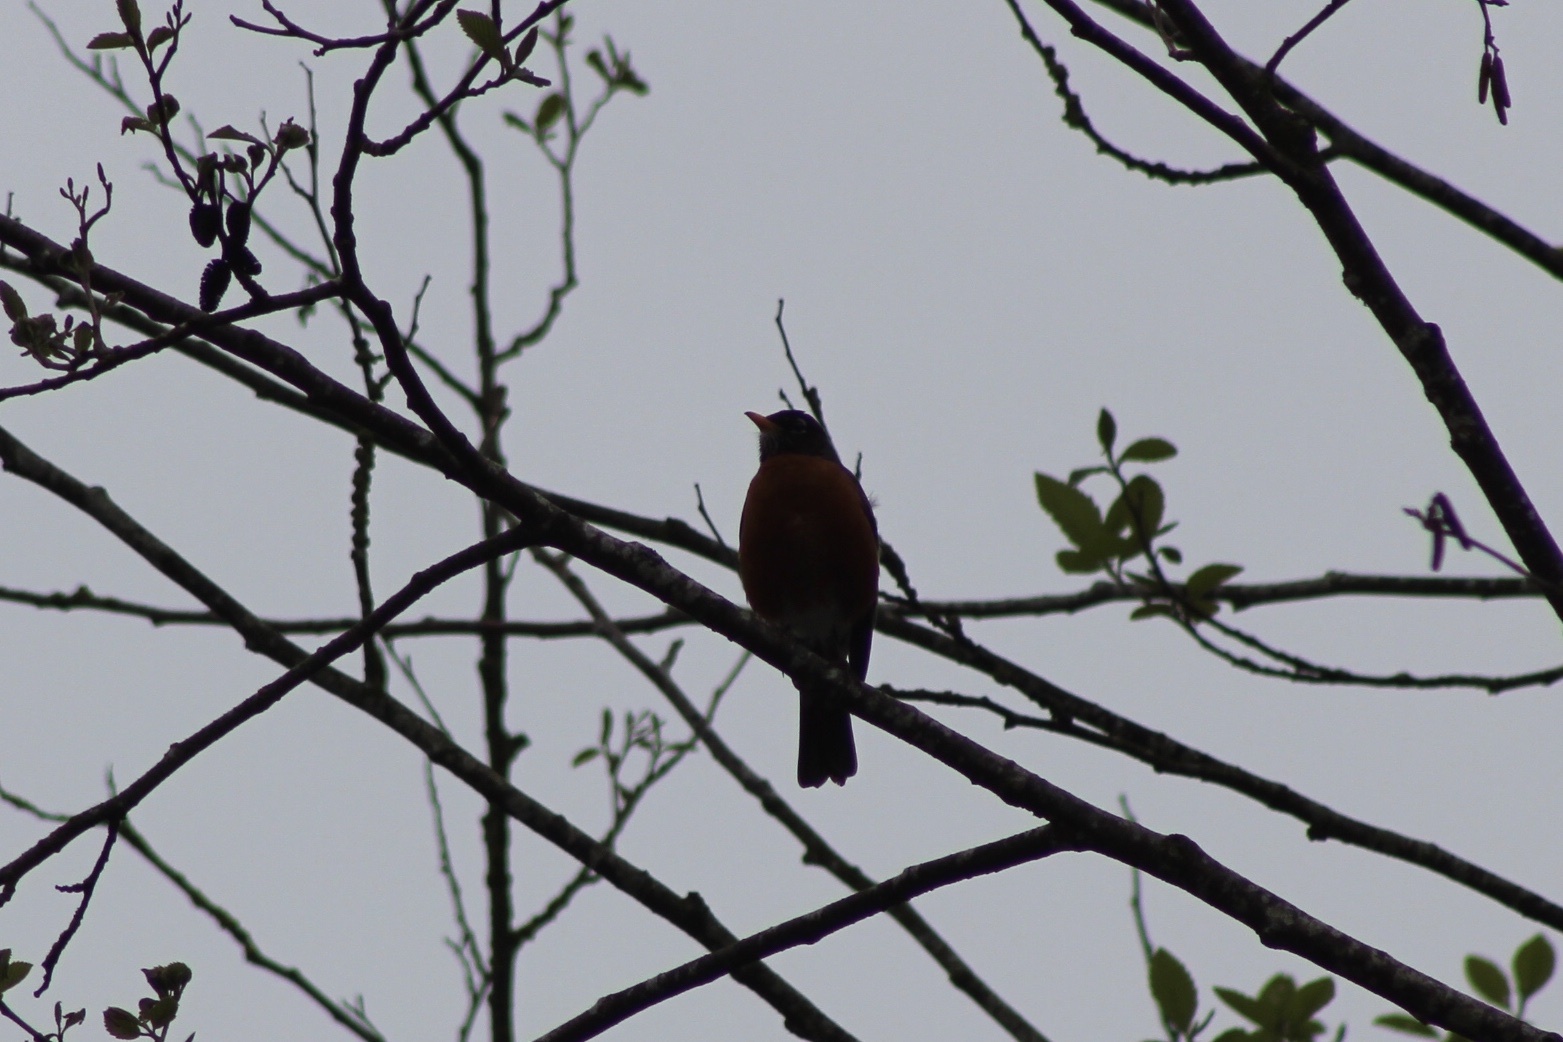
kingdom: Animalia
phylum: Chordata
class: Aves
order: Passeriformes
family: Turdidae
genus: Turdus
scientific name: Turdus migratorius
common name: American robin
